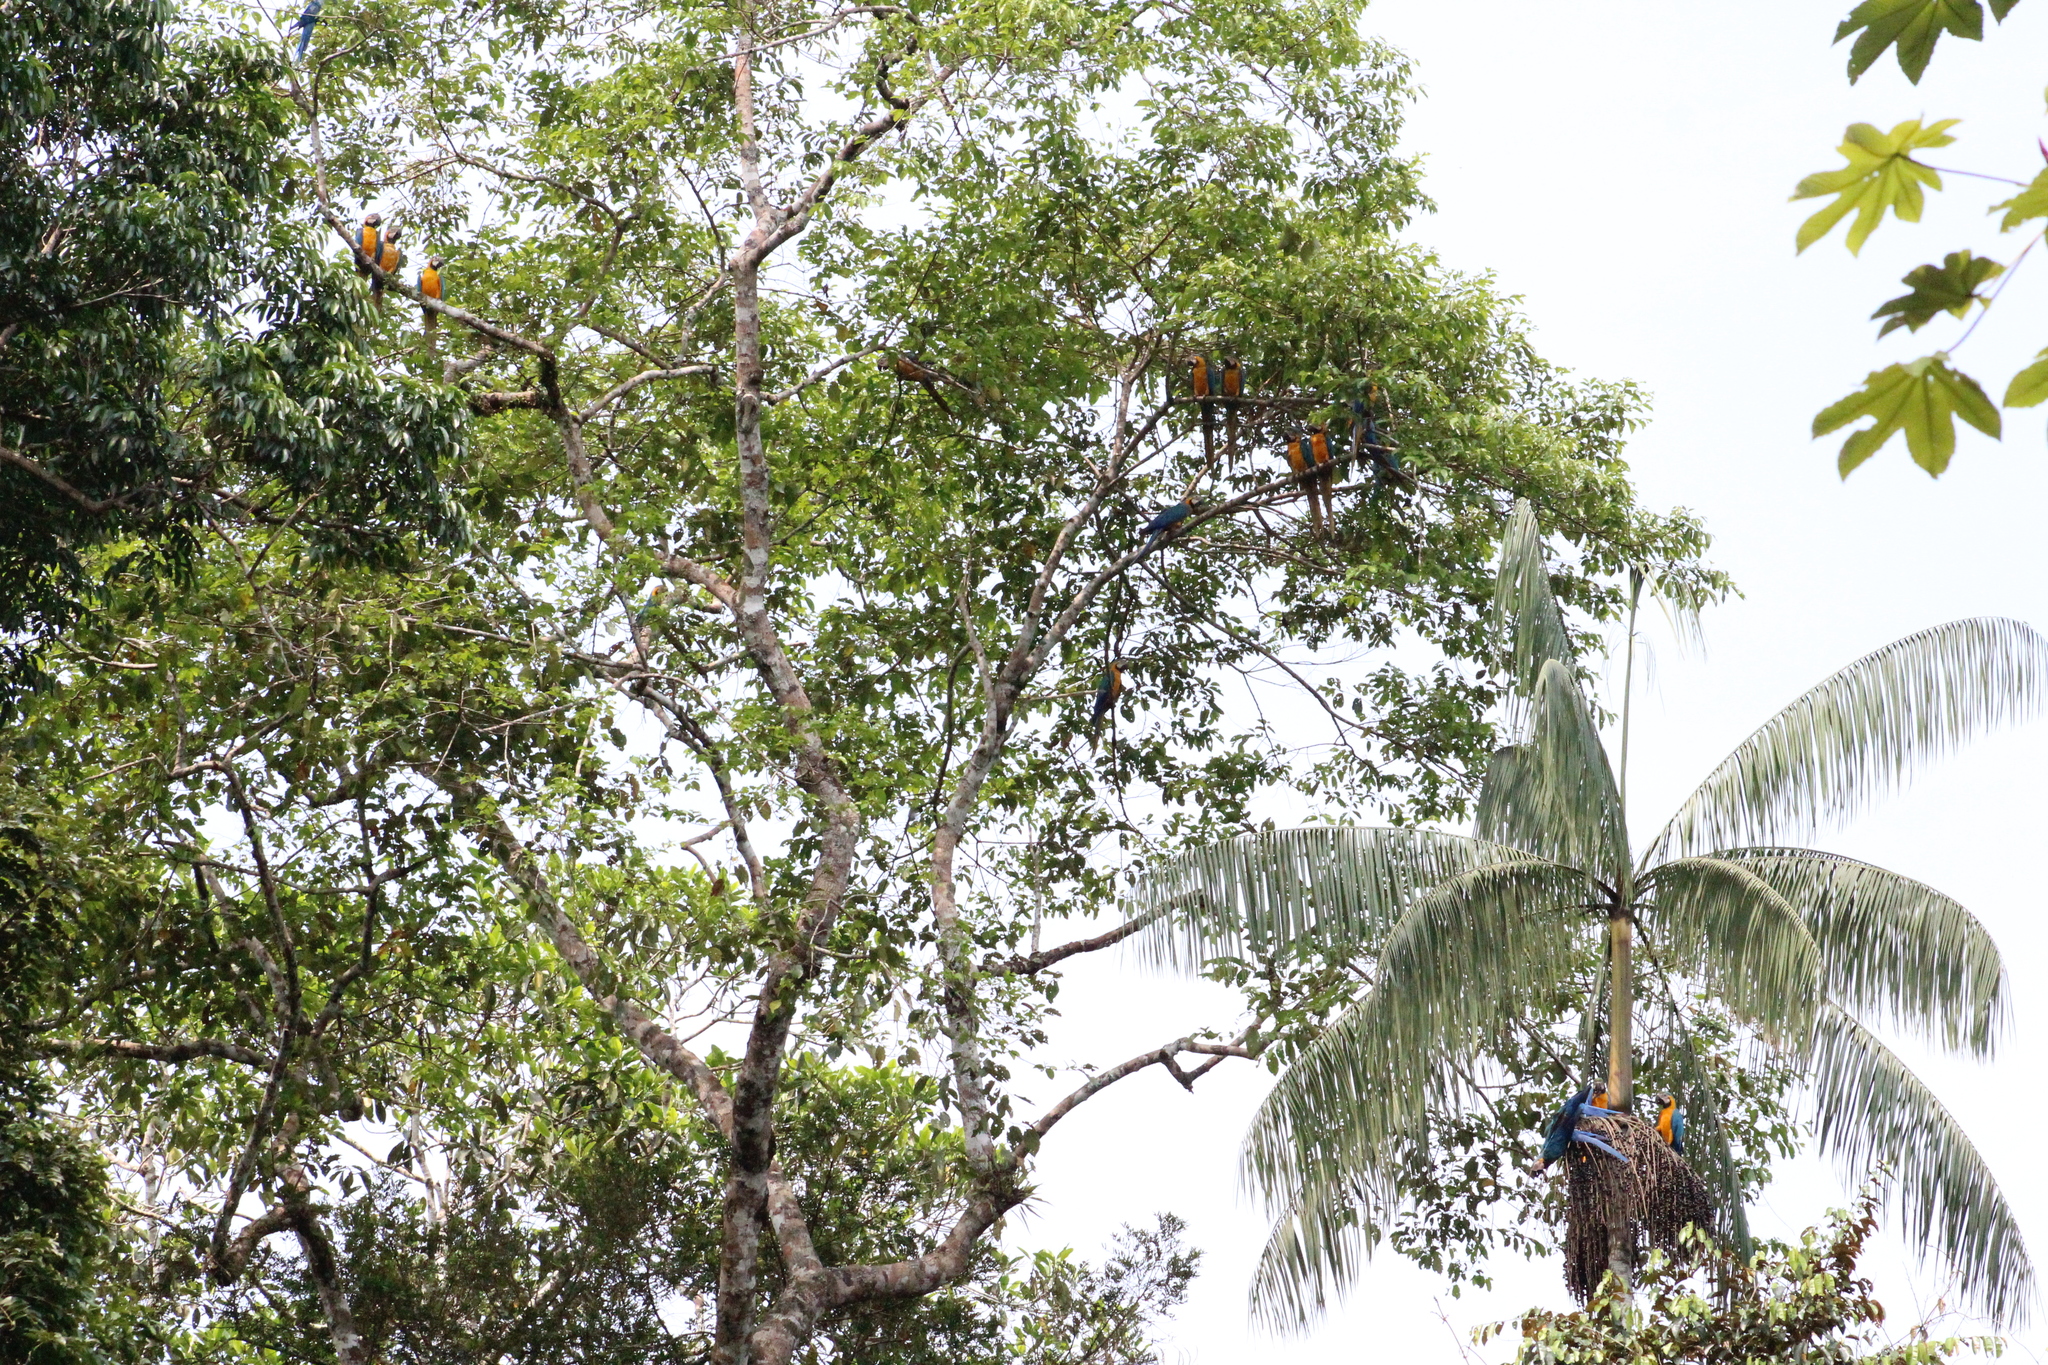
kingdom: Animalia
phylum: Chordata
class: Aves
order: Psittaciformes
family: Psittacidae
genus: Ara
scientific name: Ara ararauna
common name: Blue-and-yellow macaw
